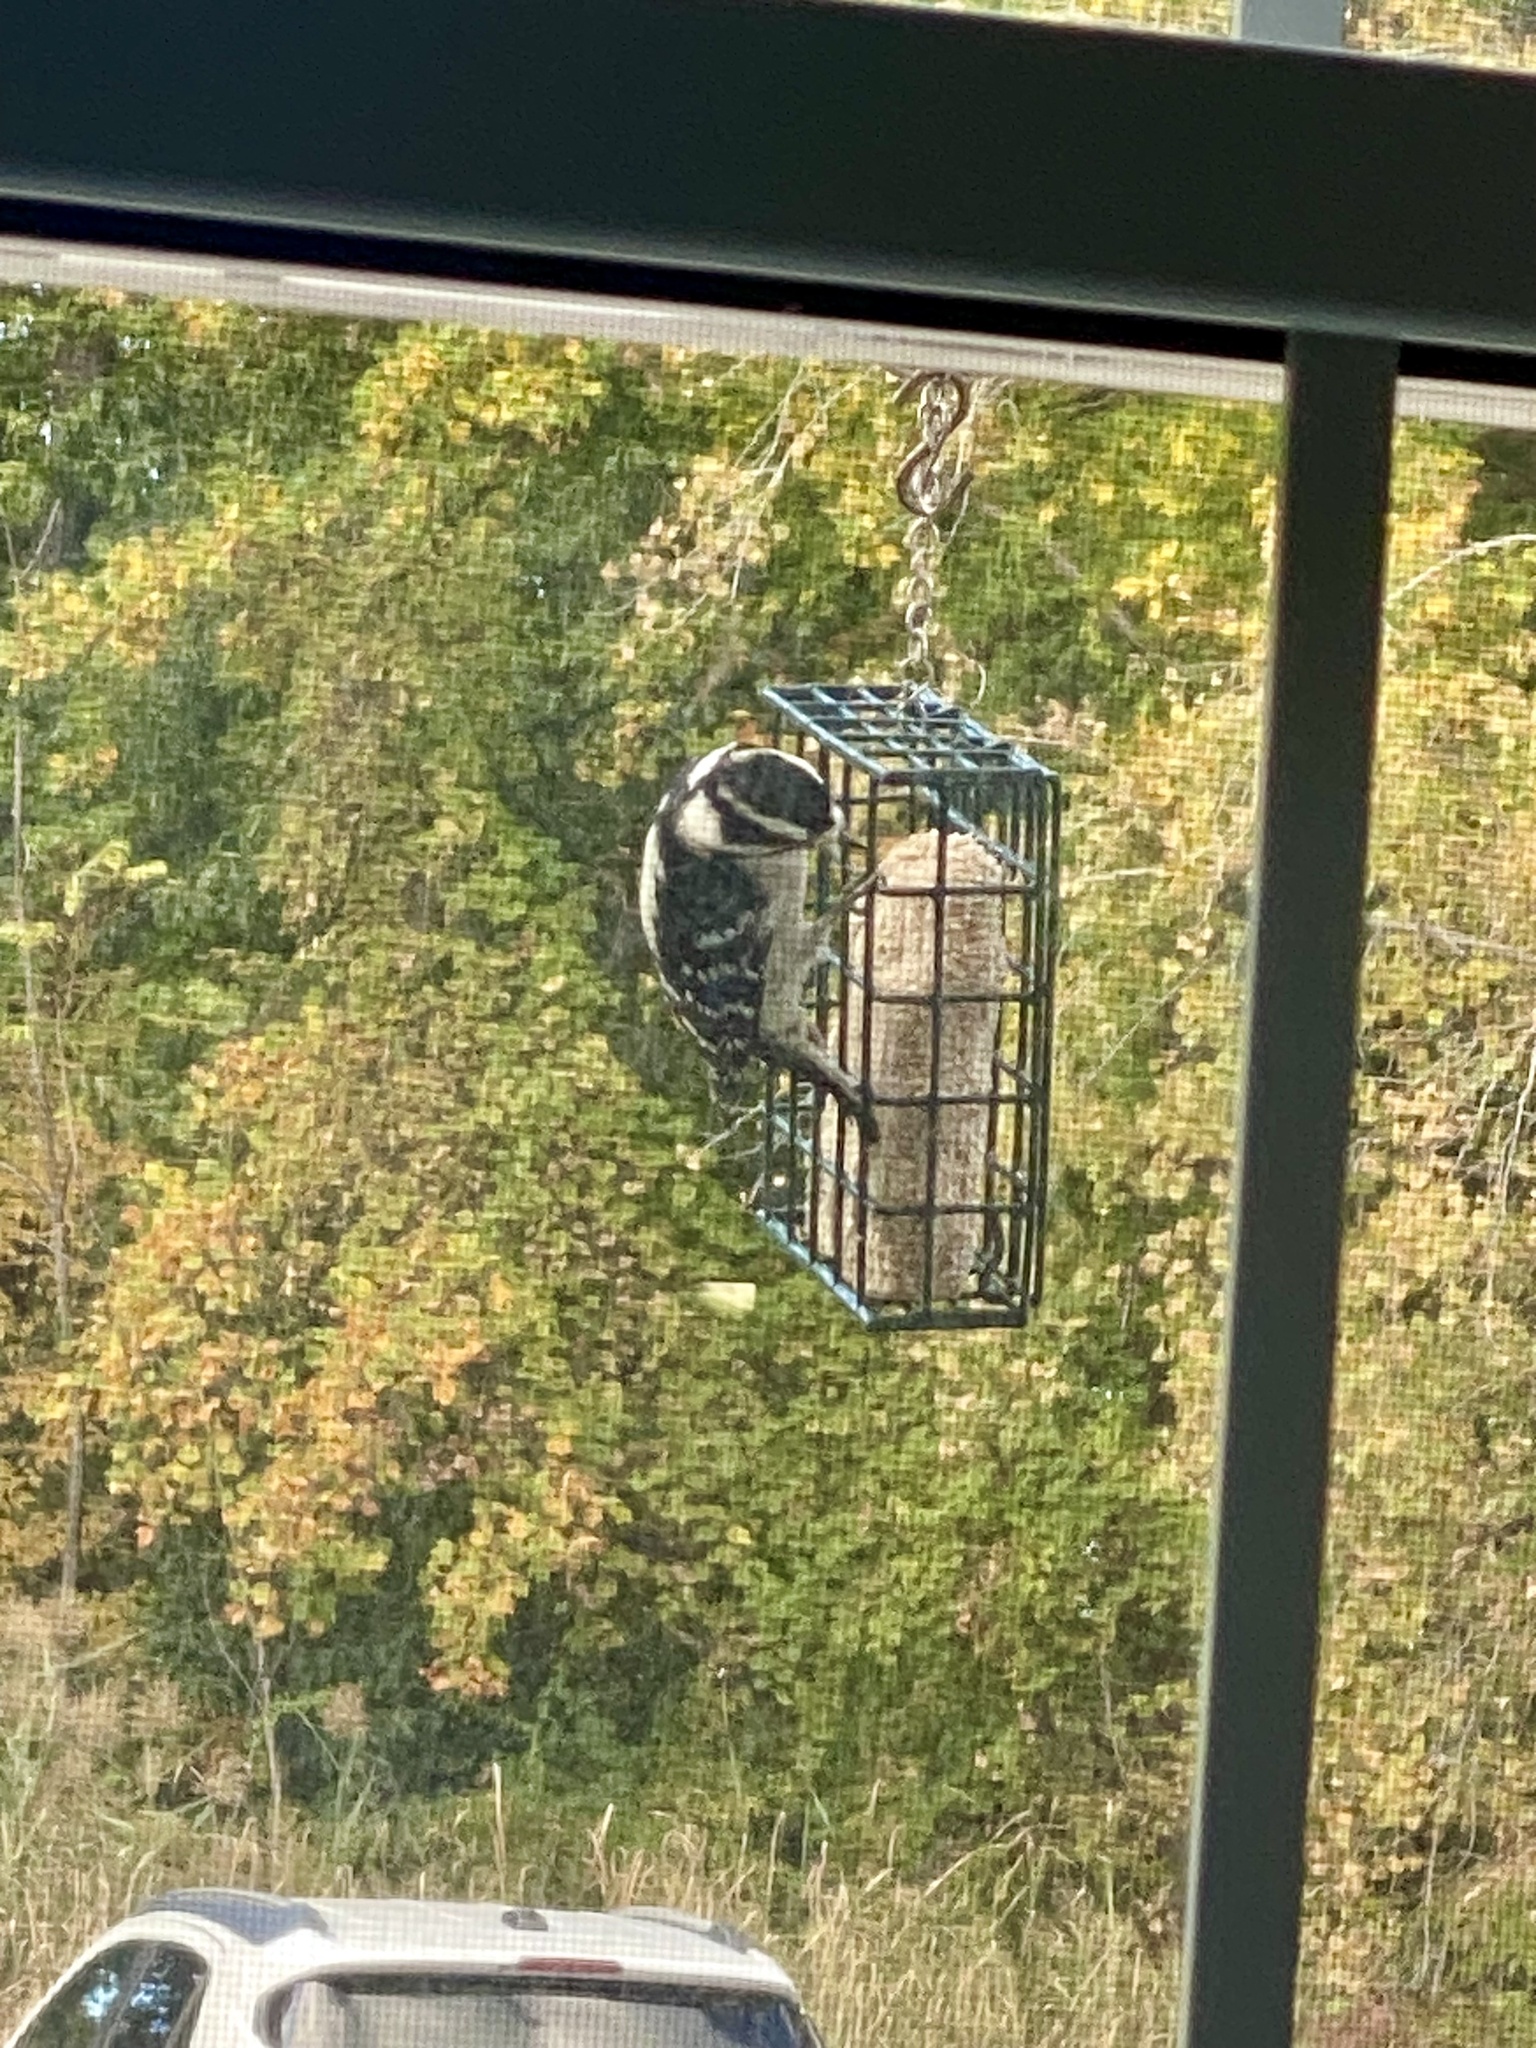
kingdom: Animalia
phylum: Chordata
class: Aves
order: Piciformes
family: Picidae
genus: Dryobates
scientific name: Dryobates pubescens
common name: Downy woodpecker
